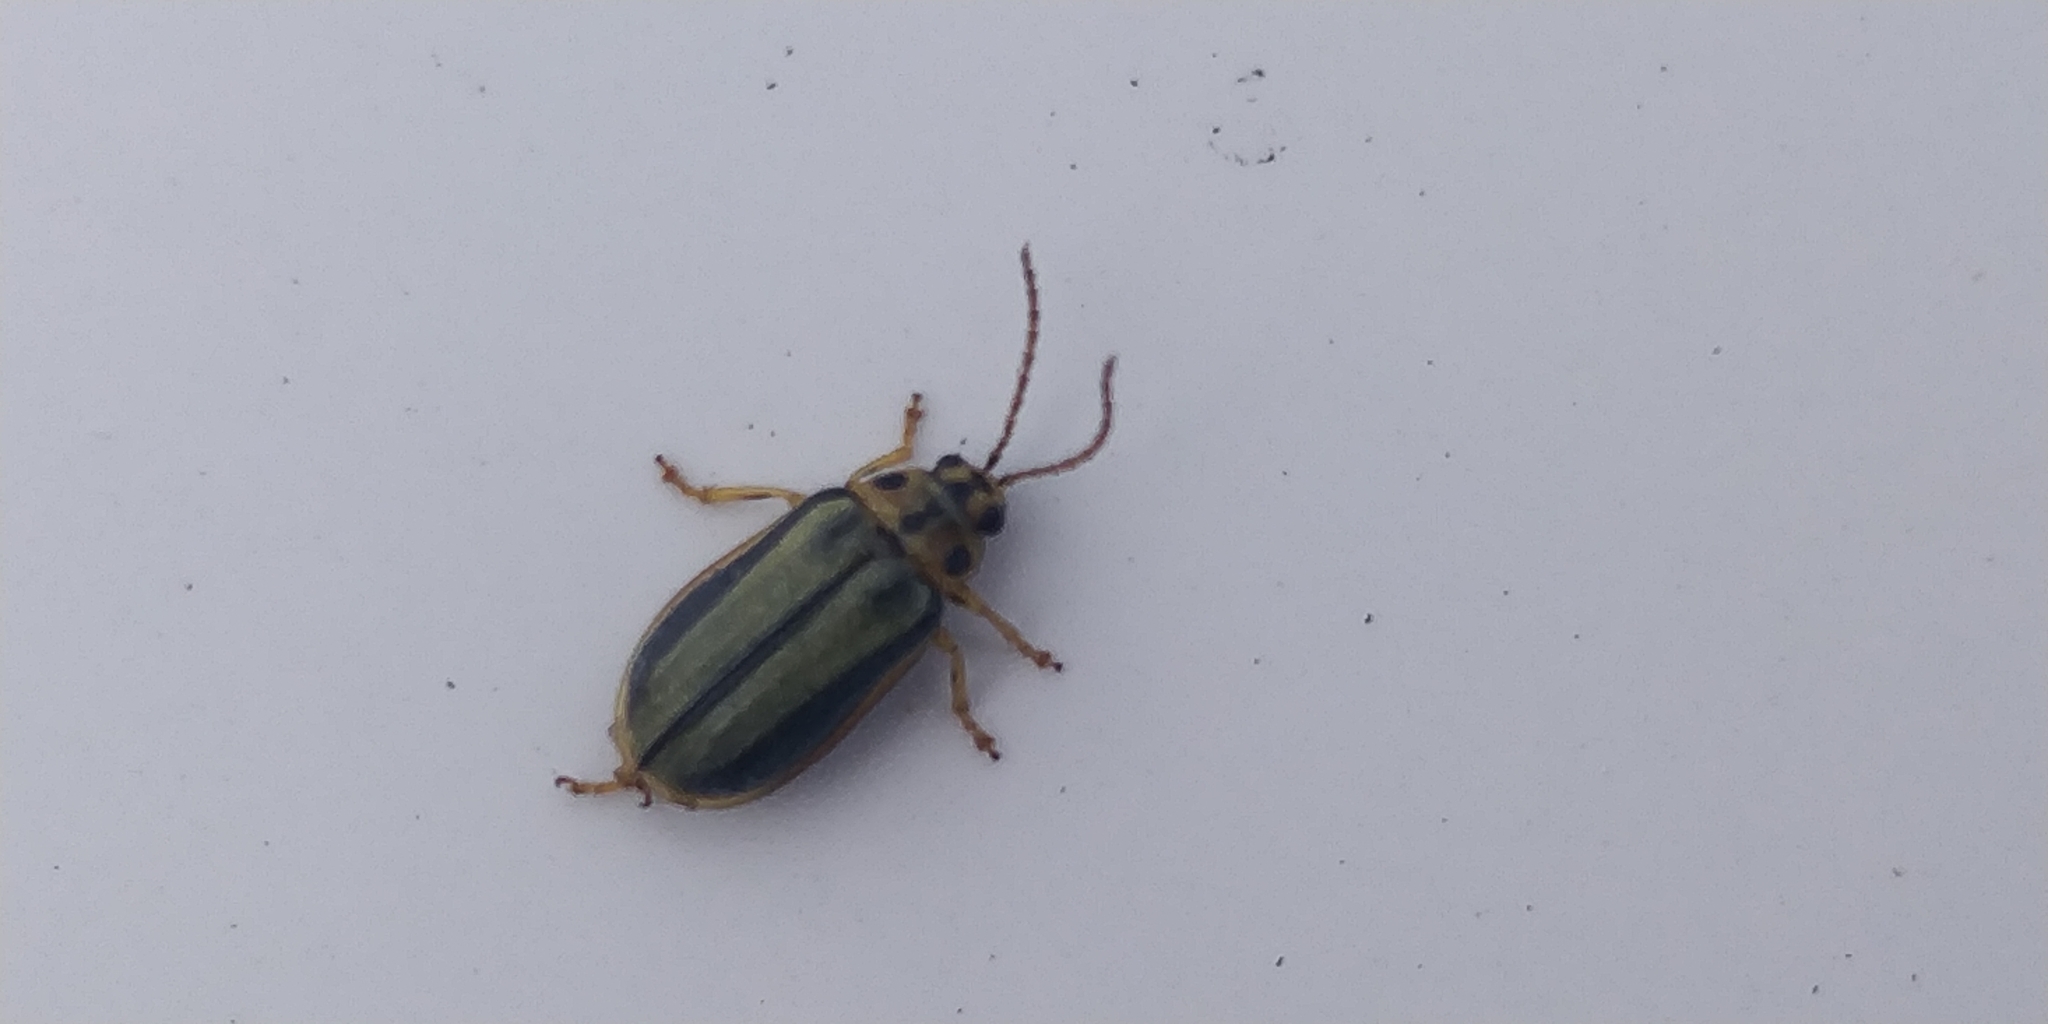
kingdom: Animalia
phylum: Arthropoda
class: Insecta
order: Coleoptera
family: Chrysomelidae
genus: Xanthogaleruca
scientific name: Xanthogaleruca luteola
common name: Elm leaf beetle
